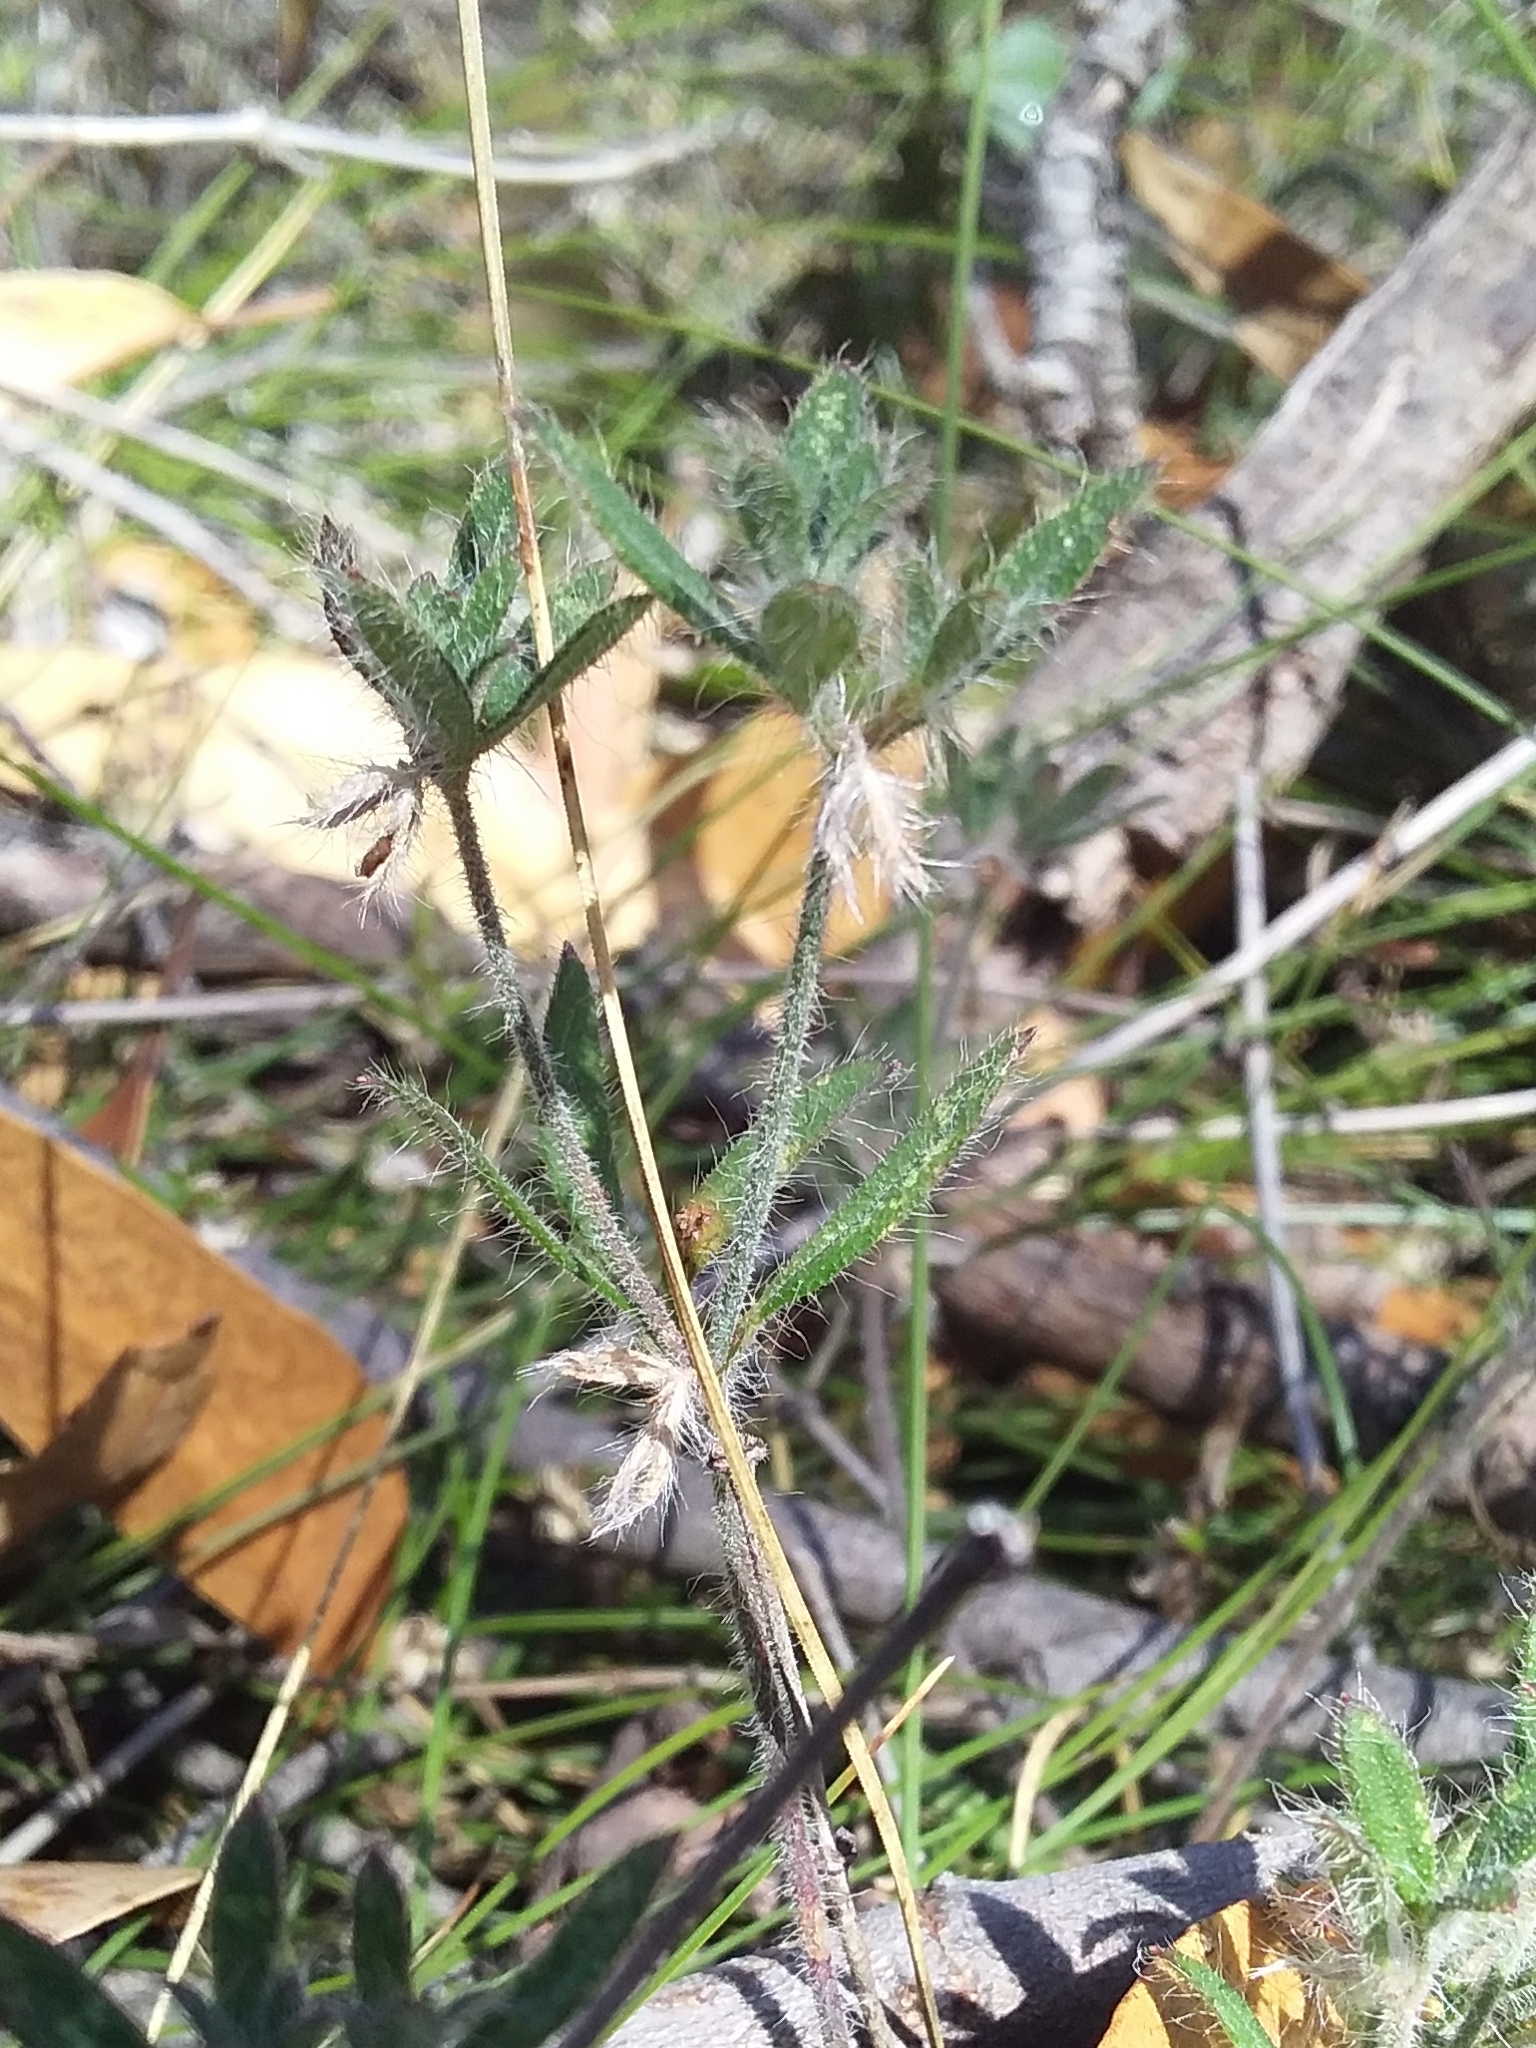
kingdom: Plantae
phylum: Tracheophyta
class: Magnoliopsida
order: Apiales
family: Apiaceae
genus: Xanthosia
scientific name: Xanthosia huegelii
